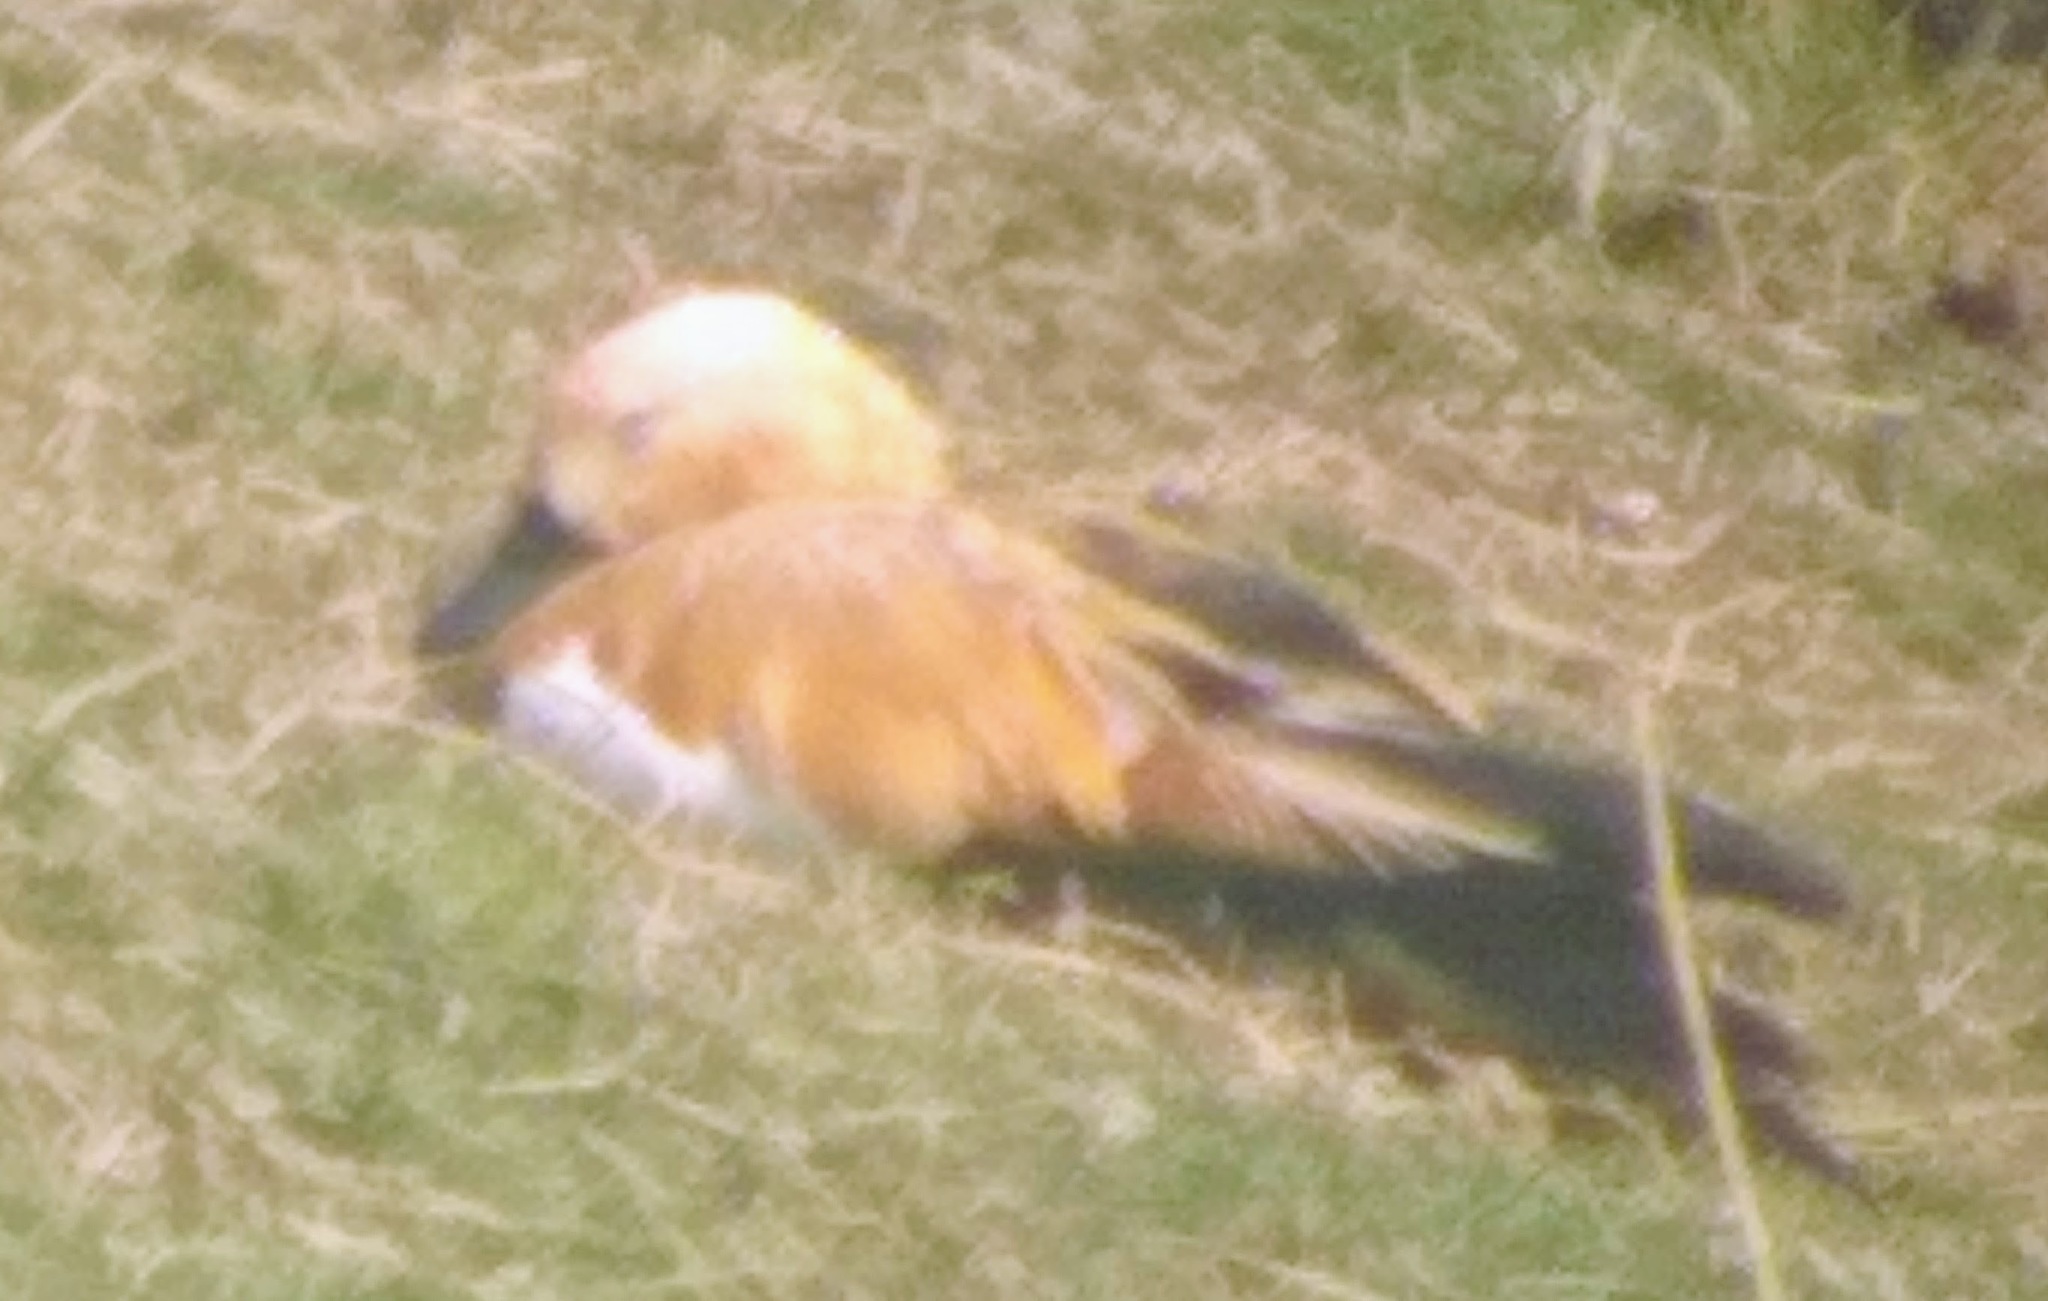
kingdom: Animalia
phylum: Chordata
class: Aves
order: Anseriformes
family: Anatidae
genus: Tadorna
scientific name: Tadorna ferruginea
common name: Ruddy shelduck
